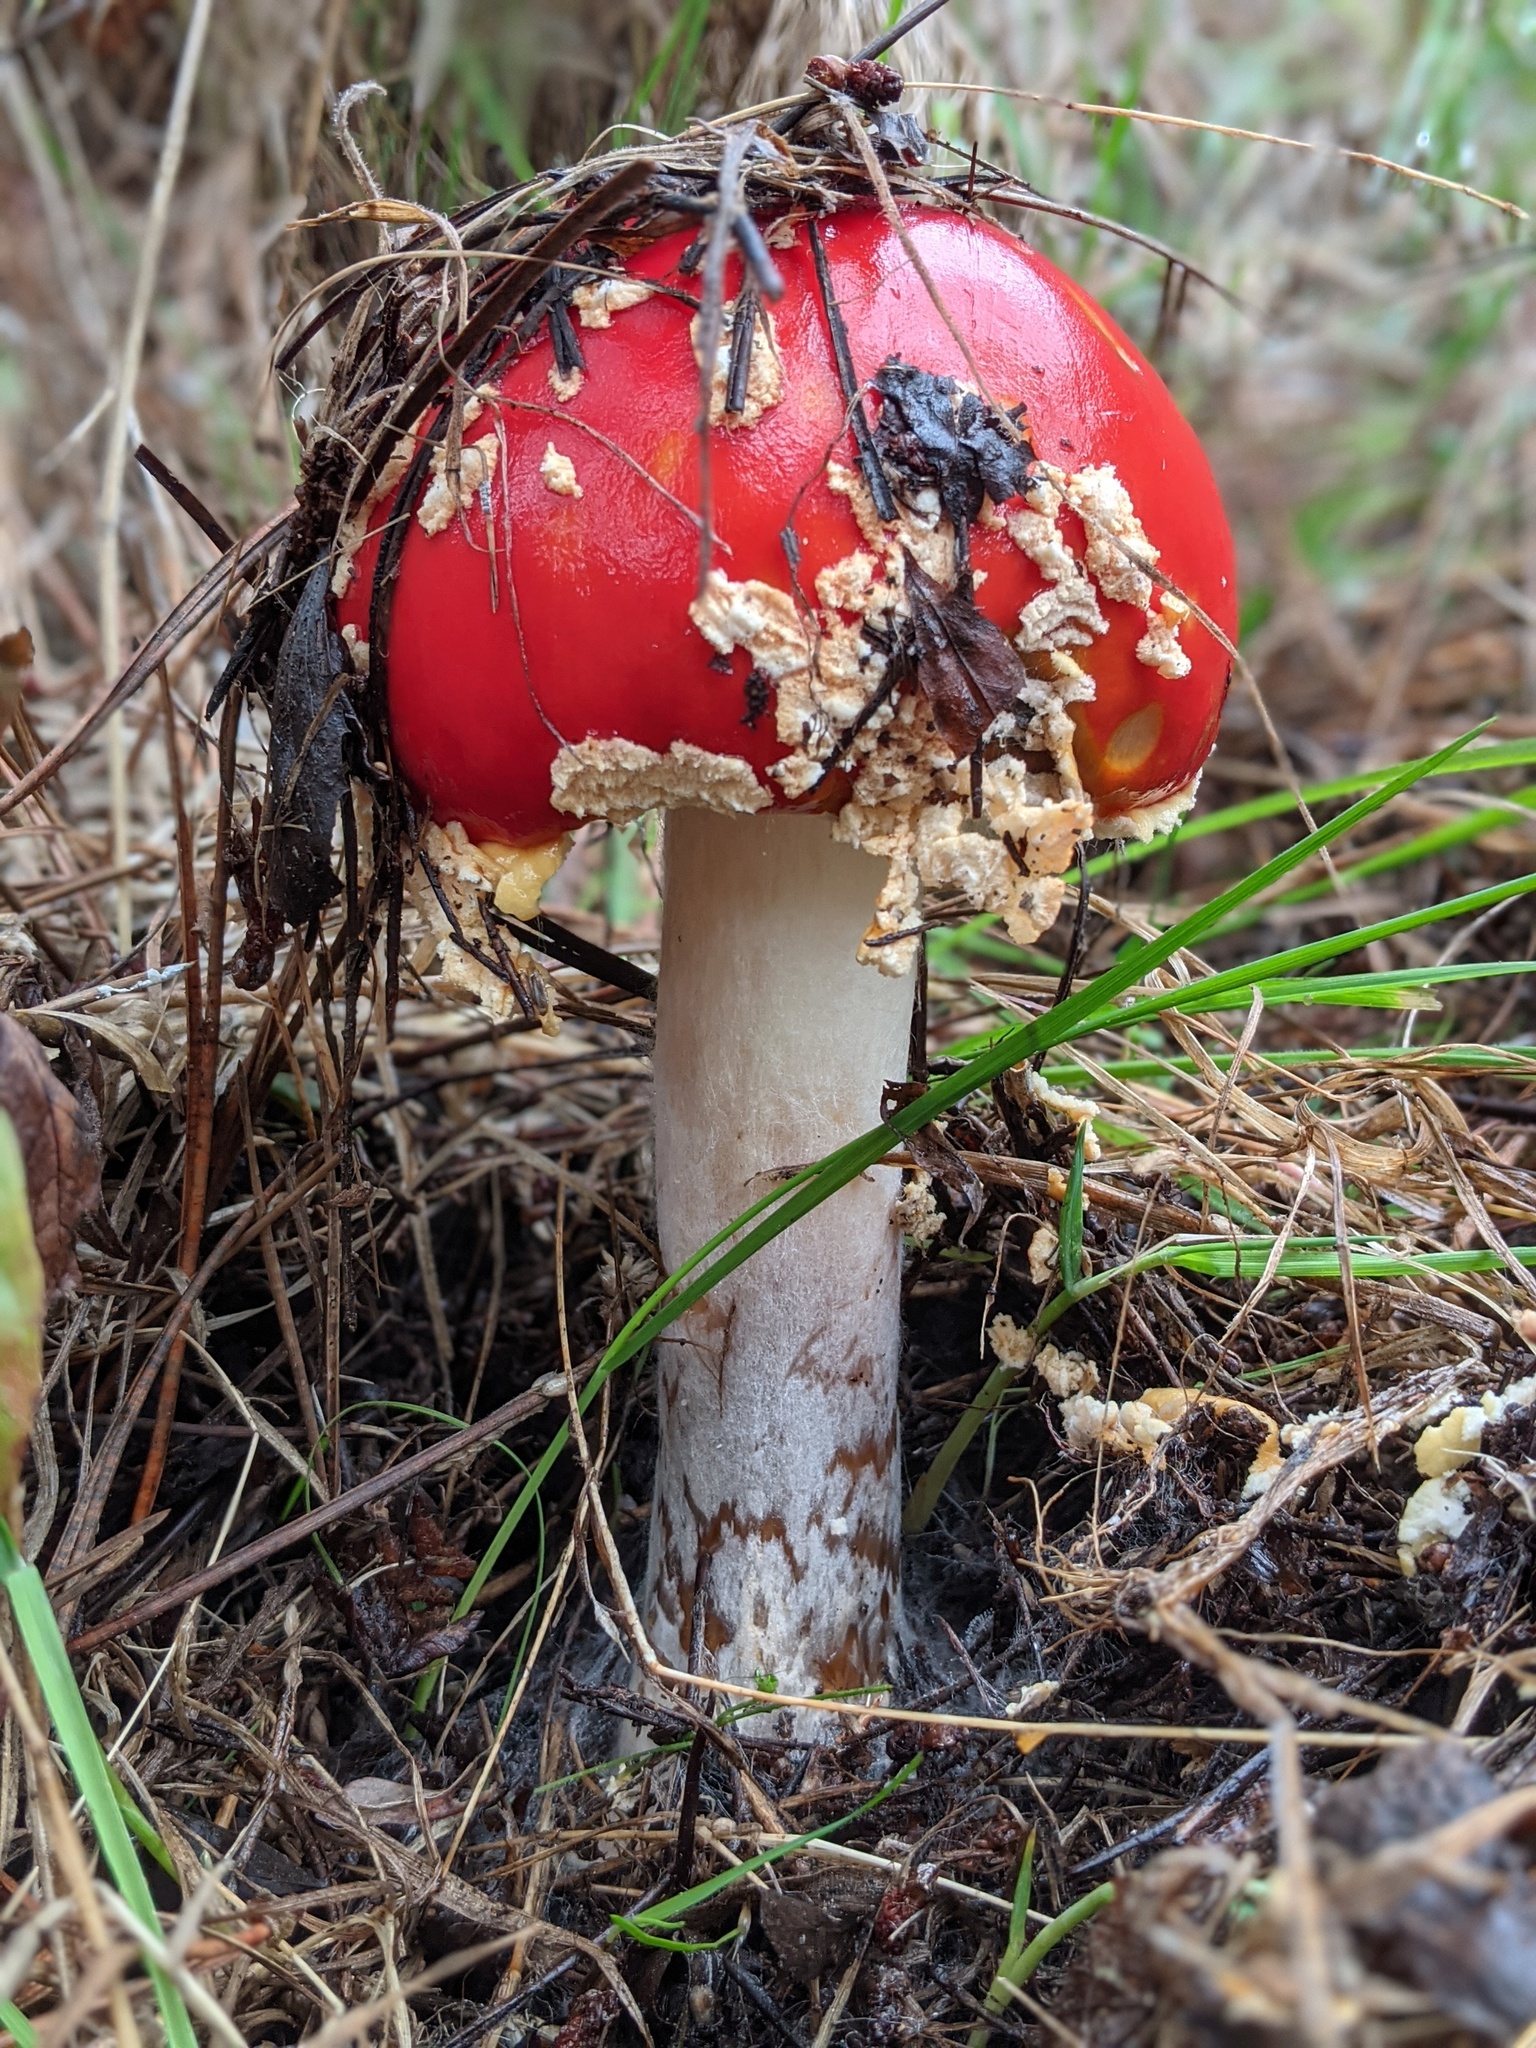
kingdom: Fungi
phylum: Basidiomycota
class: Agaricomycetes
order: Agaricales
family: Amanitaceae
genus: Amanita
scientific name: Amanita muscaria
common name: Fly agaric
